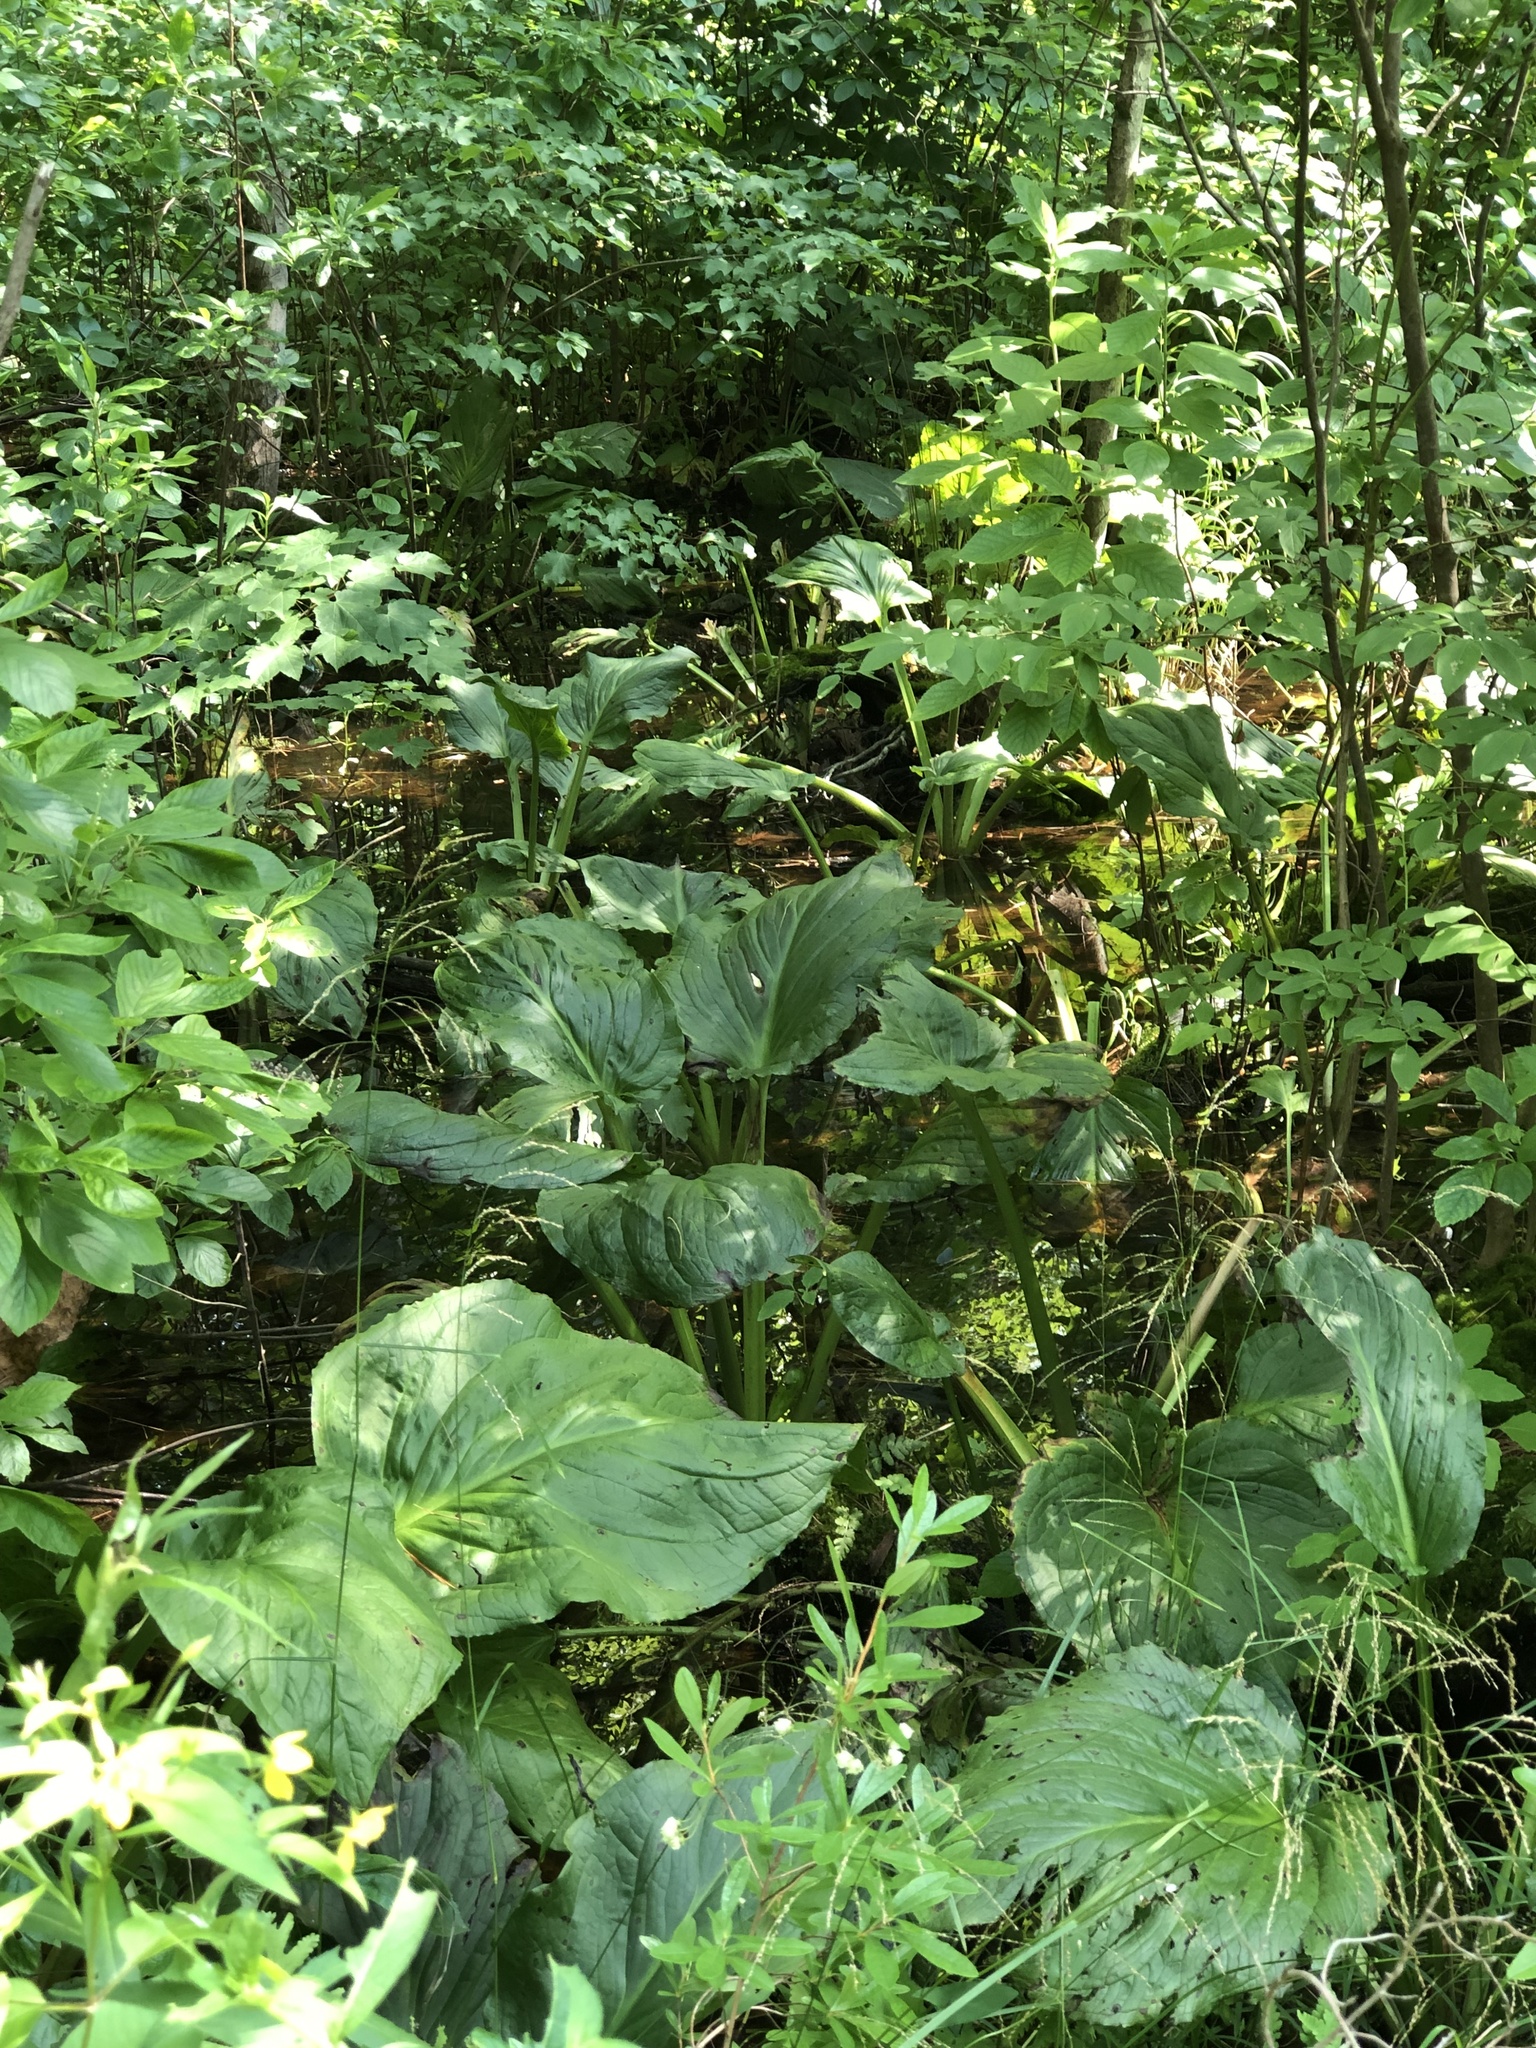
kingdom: Plantae
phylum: Tracheophyta
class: Liliopsida
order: Alismatales
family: Araceae
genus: Symplocarpus
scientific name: Symplocarpus foetidus
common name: Eastern skunk cabbage
